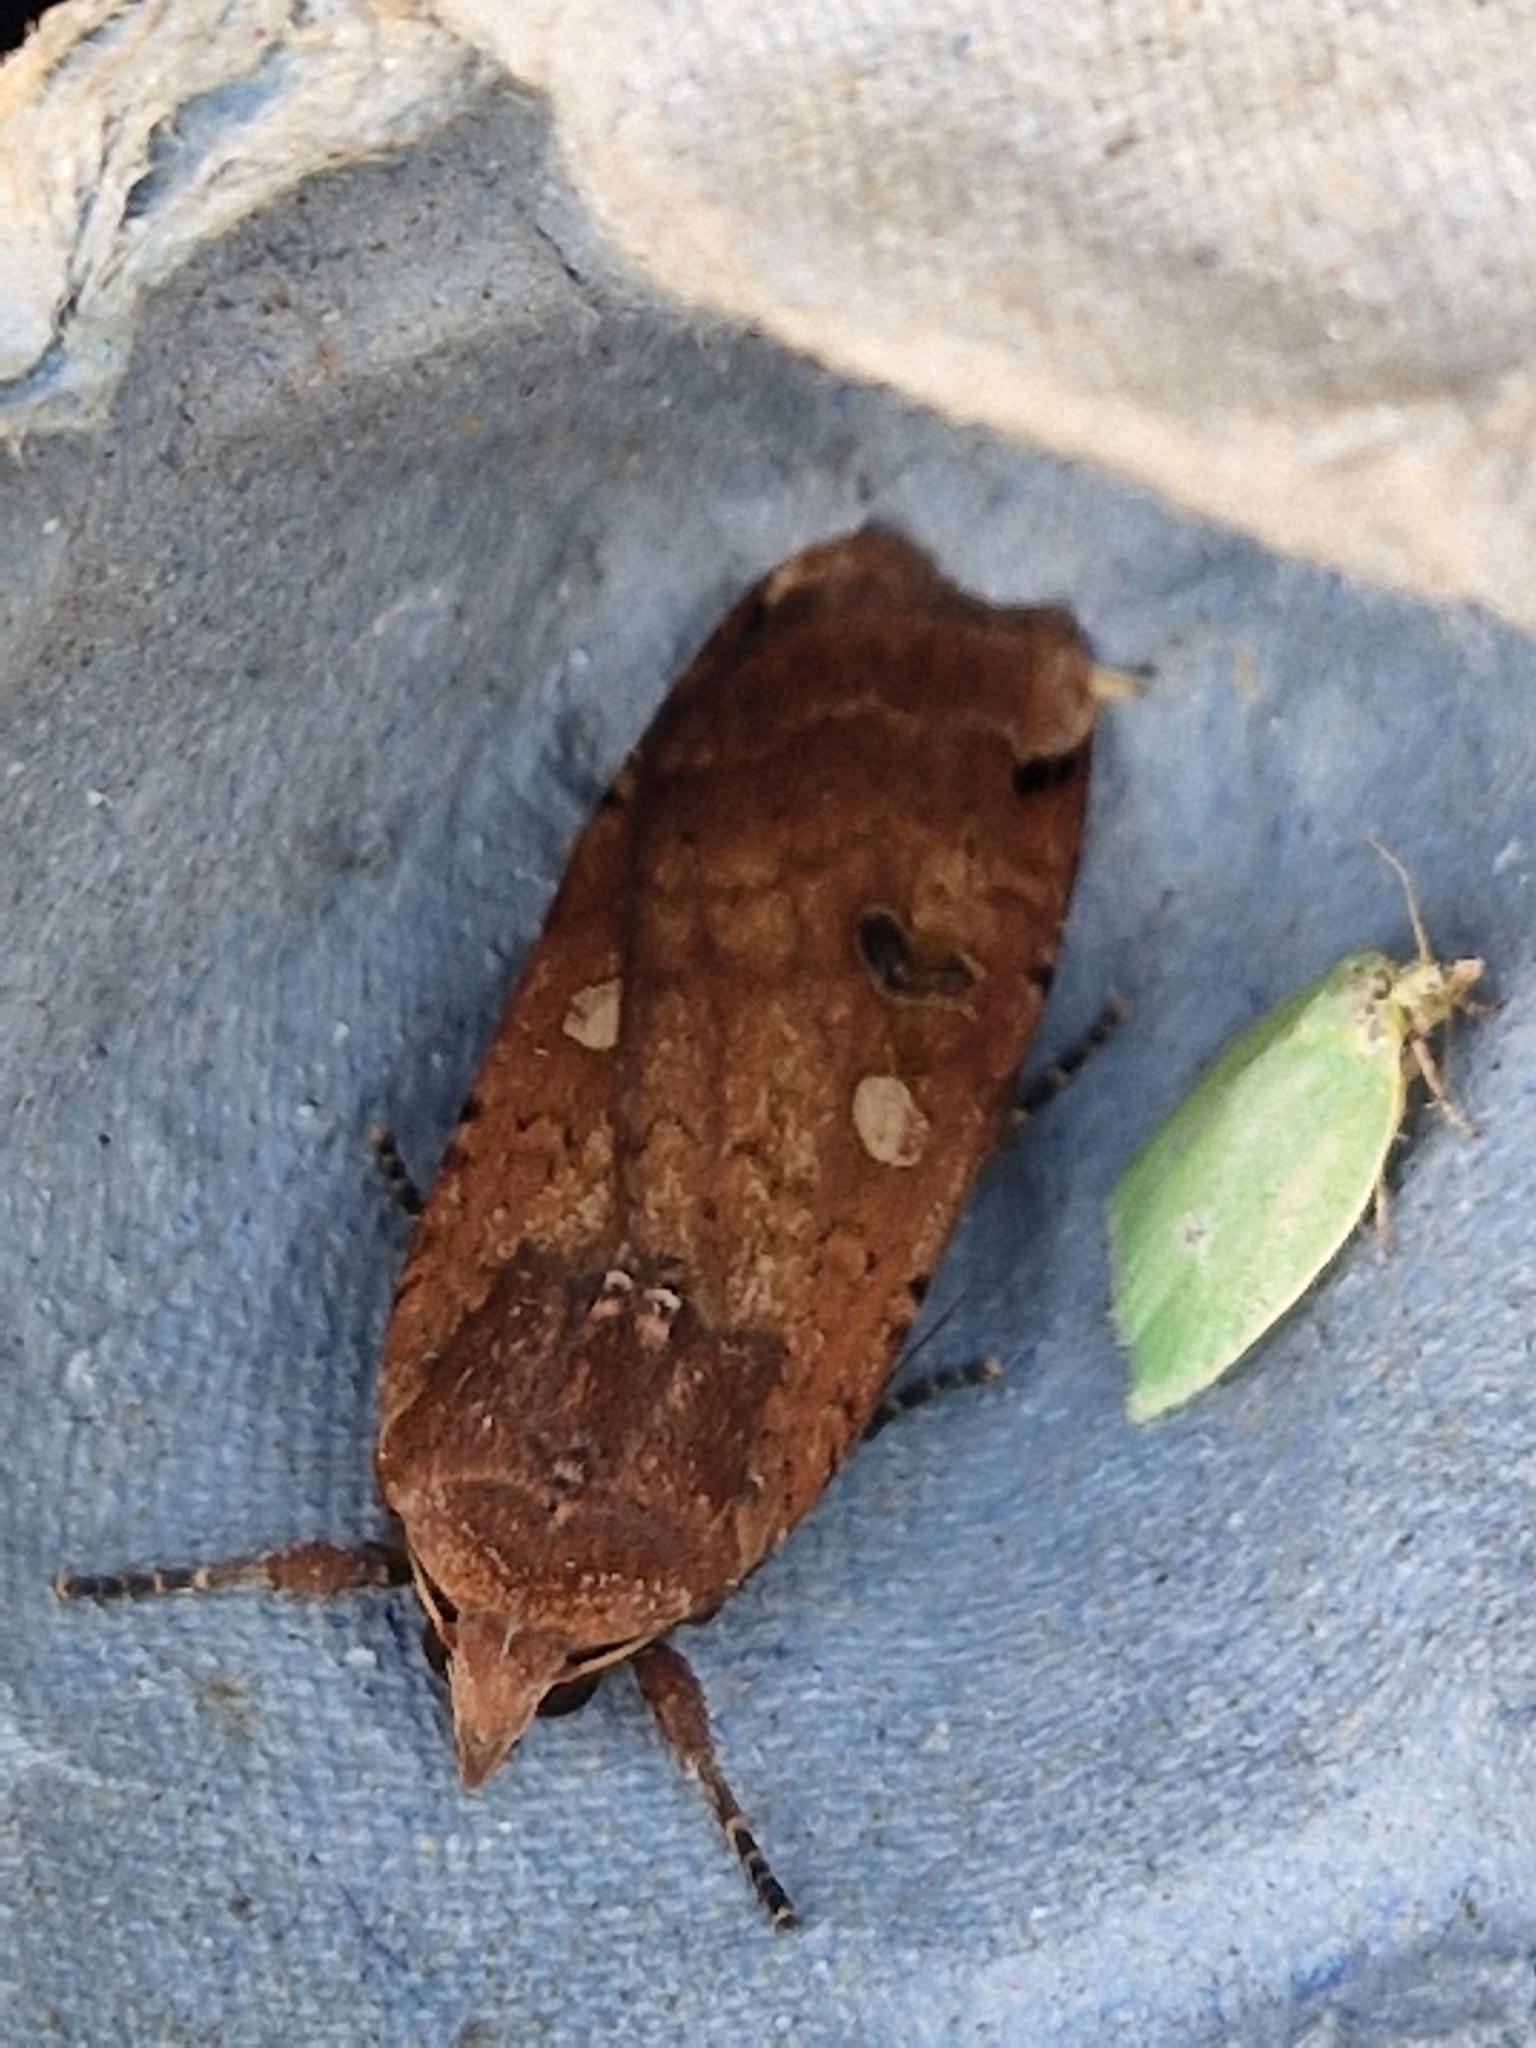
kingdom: Animalia
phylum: Arthropoda
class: Insecta
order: Lepidoptera
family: Noctuidae
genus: Noctua
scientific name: Noctua pronuba
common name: Large yellow underwing
